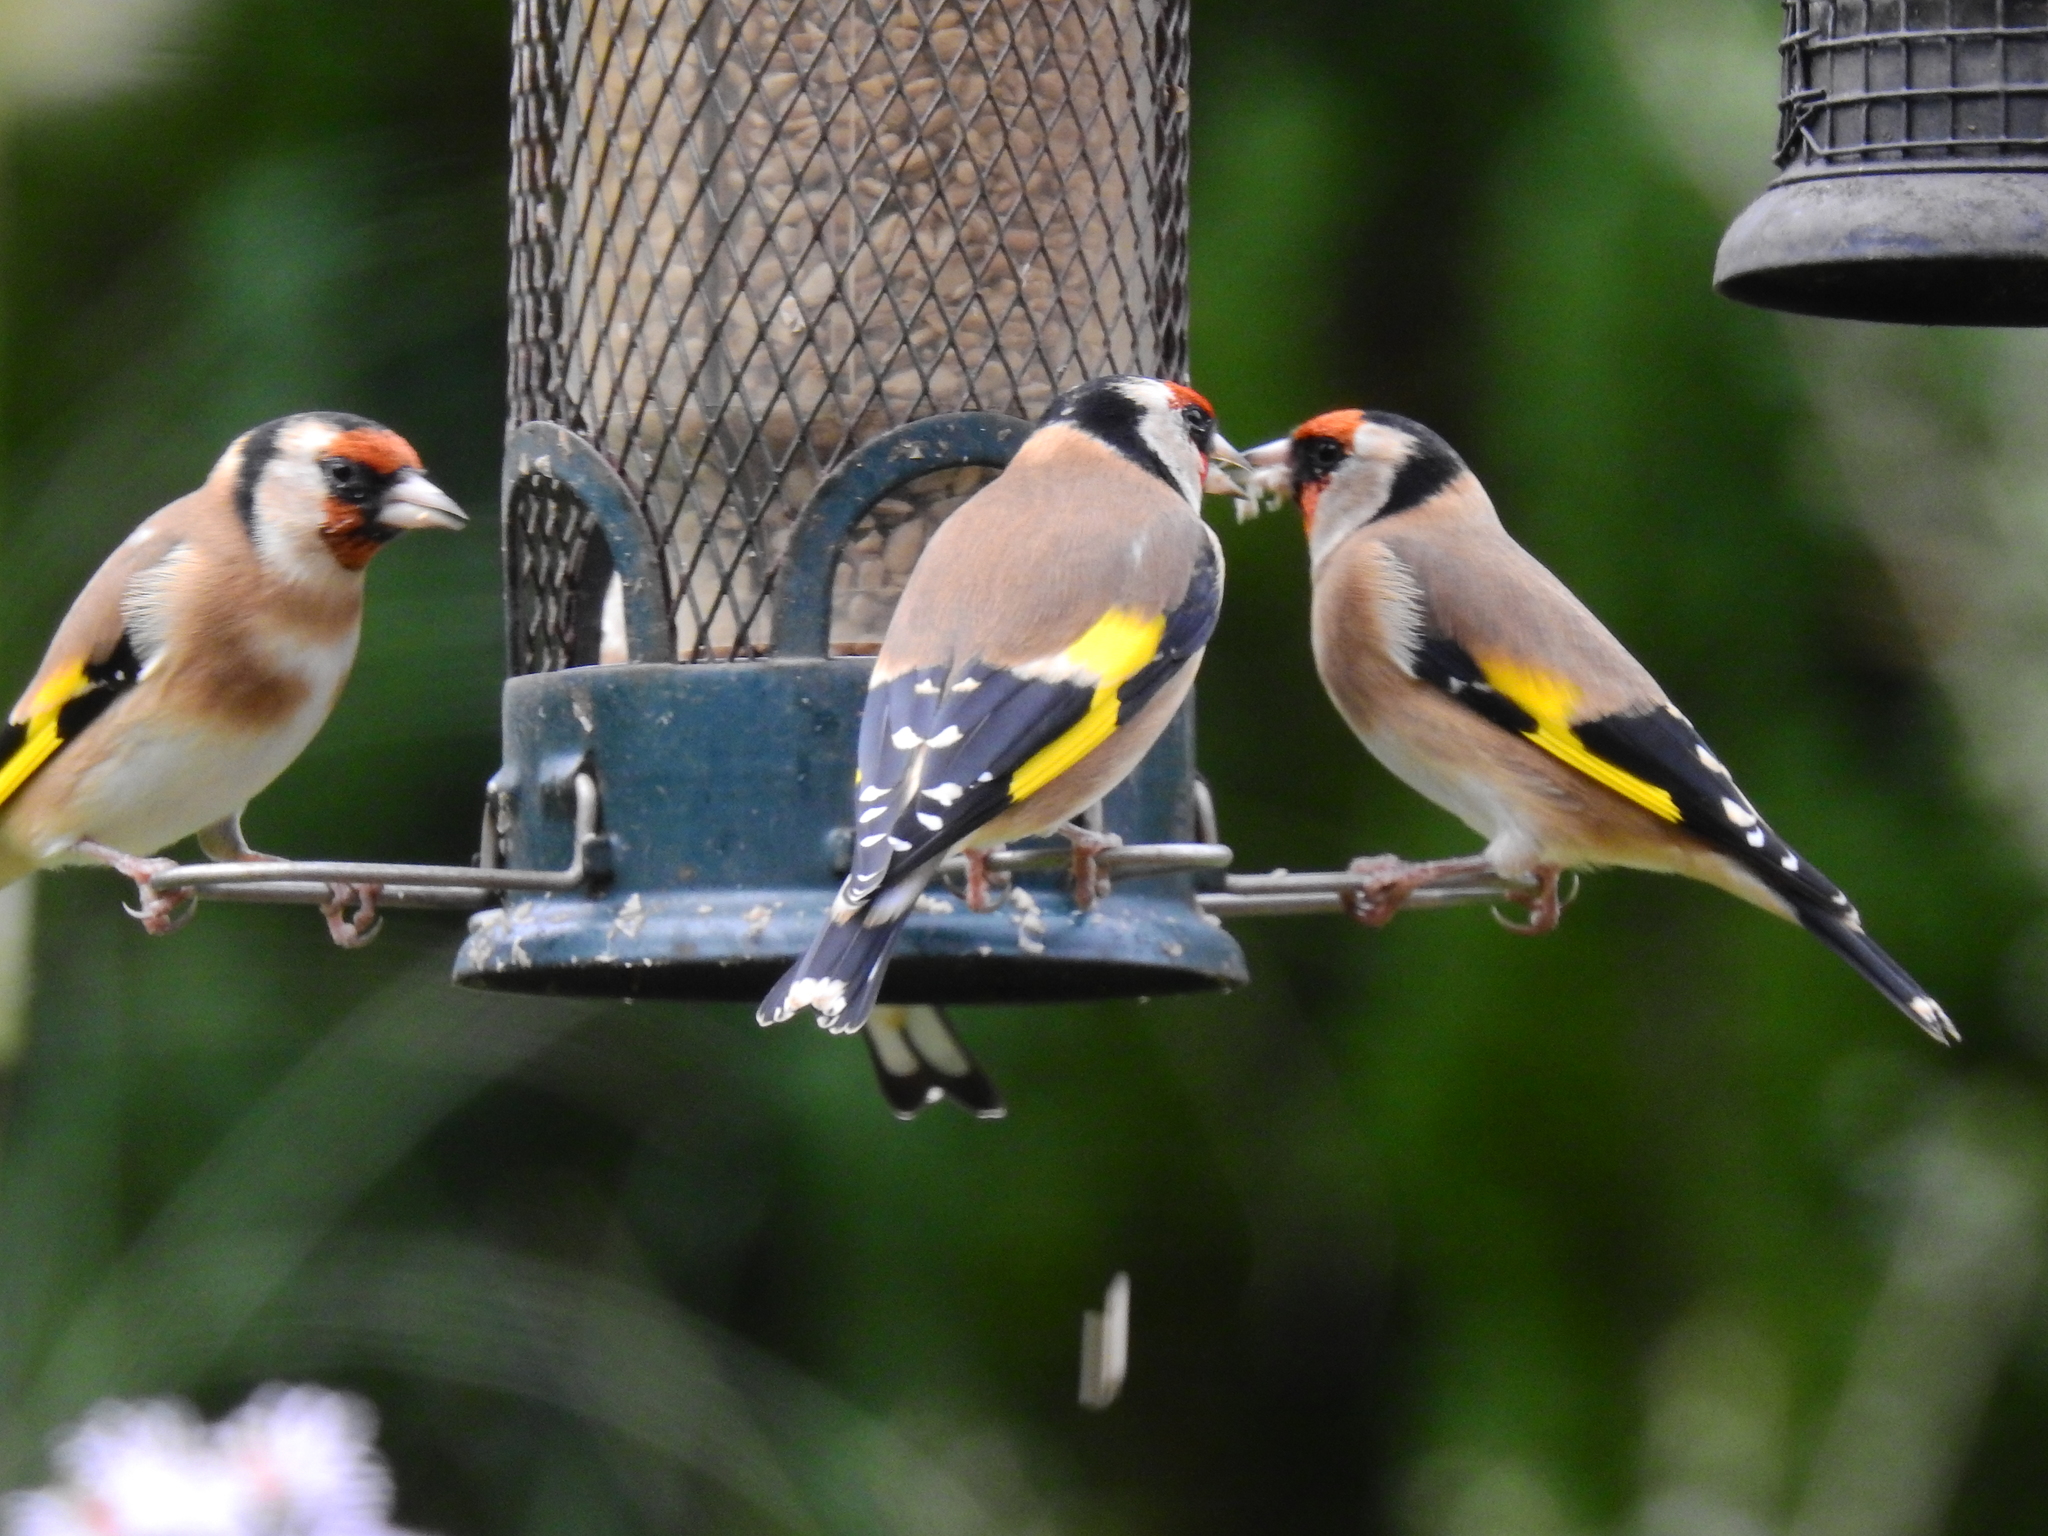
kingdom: Animalia
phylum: Chordata
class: Aves
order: Passeriformes
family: Fringillidae
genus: Carduelis
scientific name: Carduelis carduelis
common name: European goldfinch
